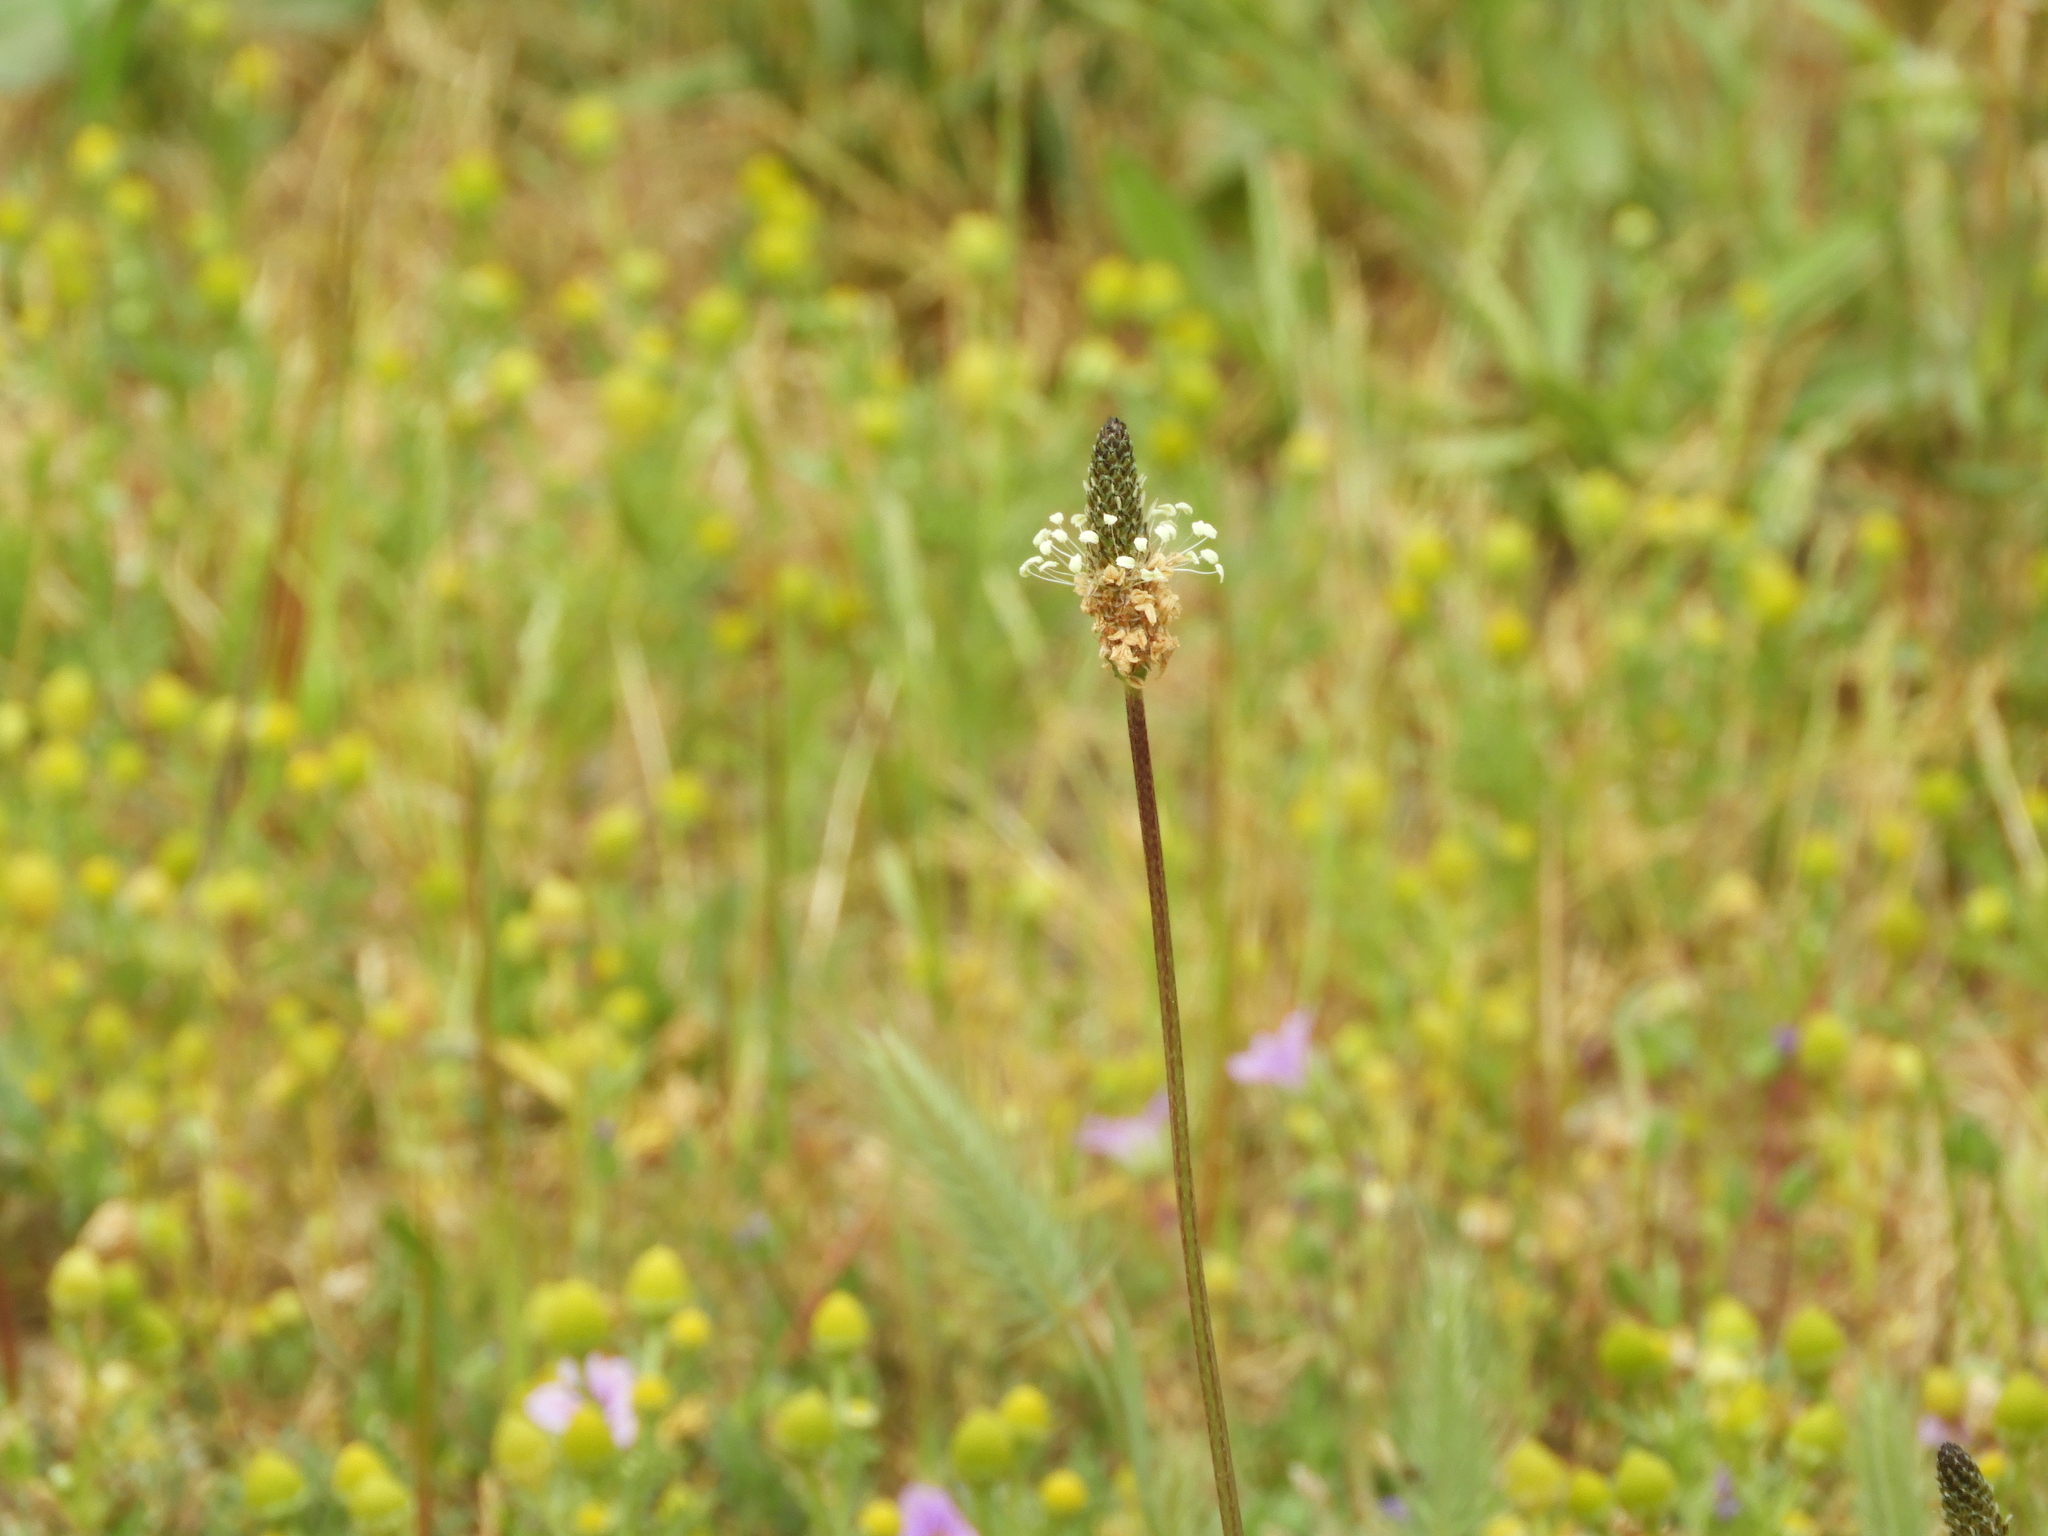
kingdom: Plantae
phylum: Tracheophyta
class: Magnoliopsida
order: Lamiales
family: Plantaginaceae
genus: Plantago
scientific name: Plantago lanceolata
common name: Ribwort plantain
